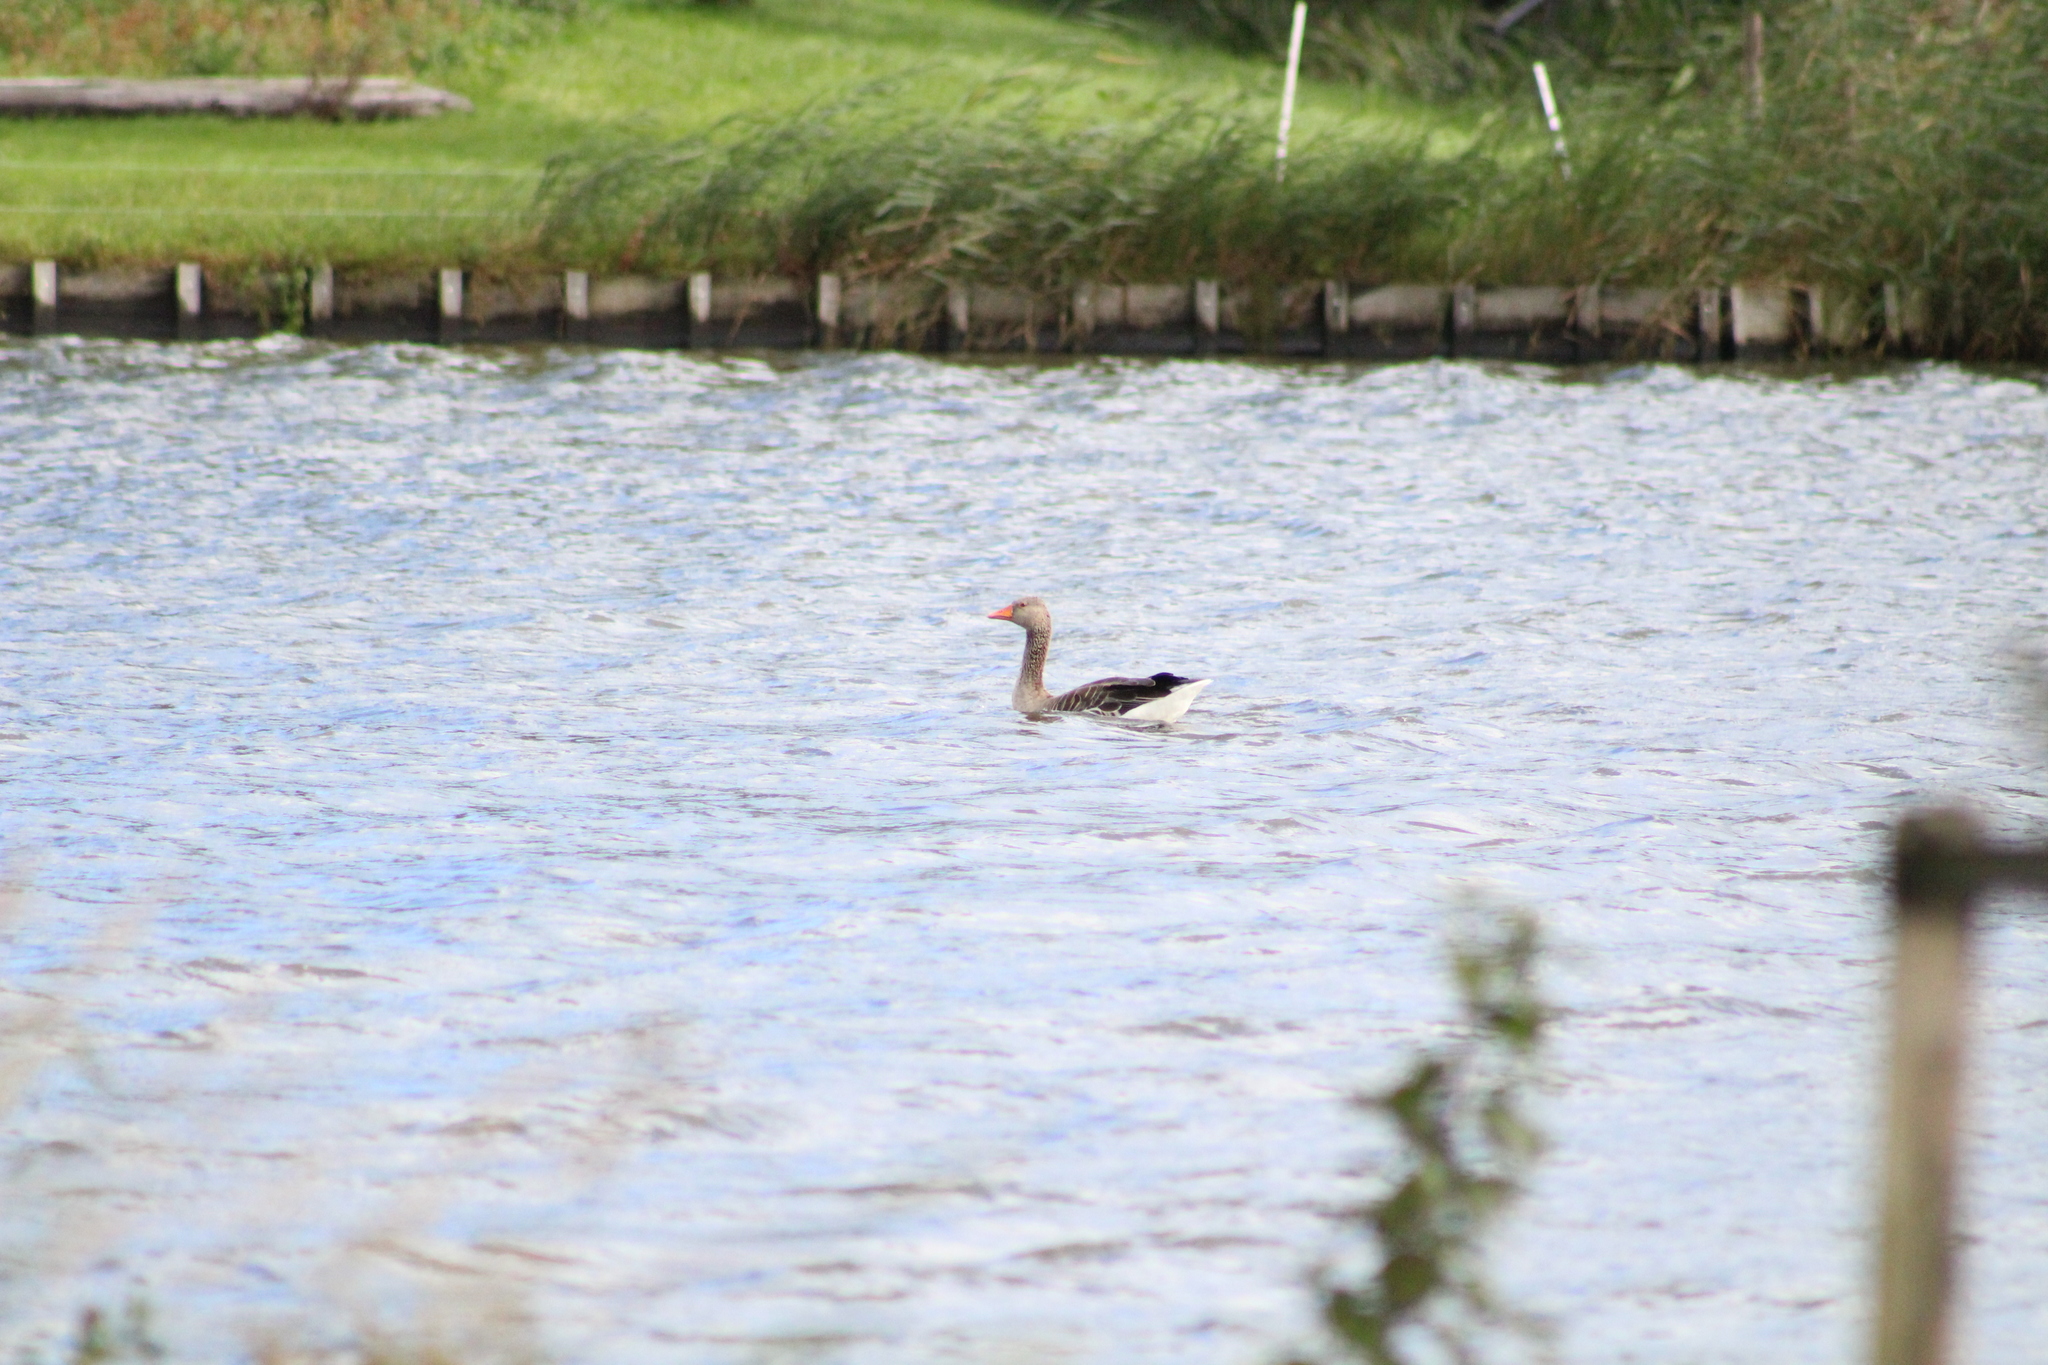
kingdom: Animalia
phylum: Chordata
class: Aves
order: Anseriformes
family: Anatidae
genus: Anser
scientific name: Anser anser
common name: Greylag goose
